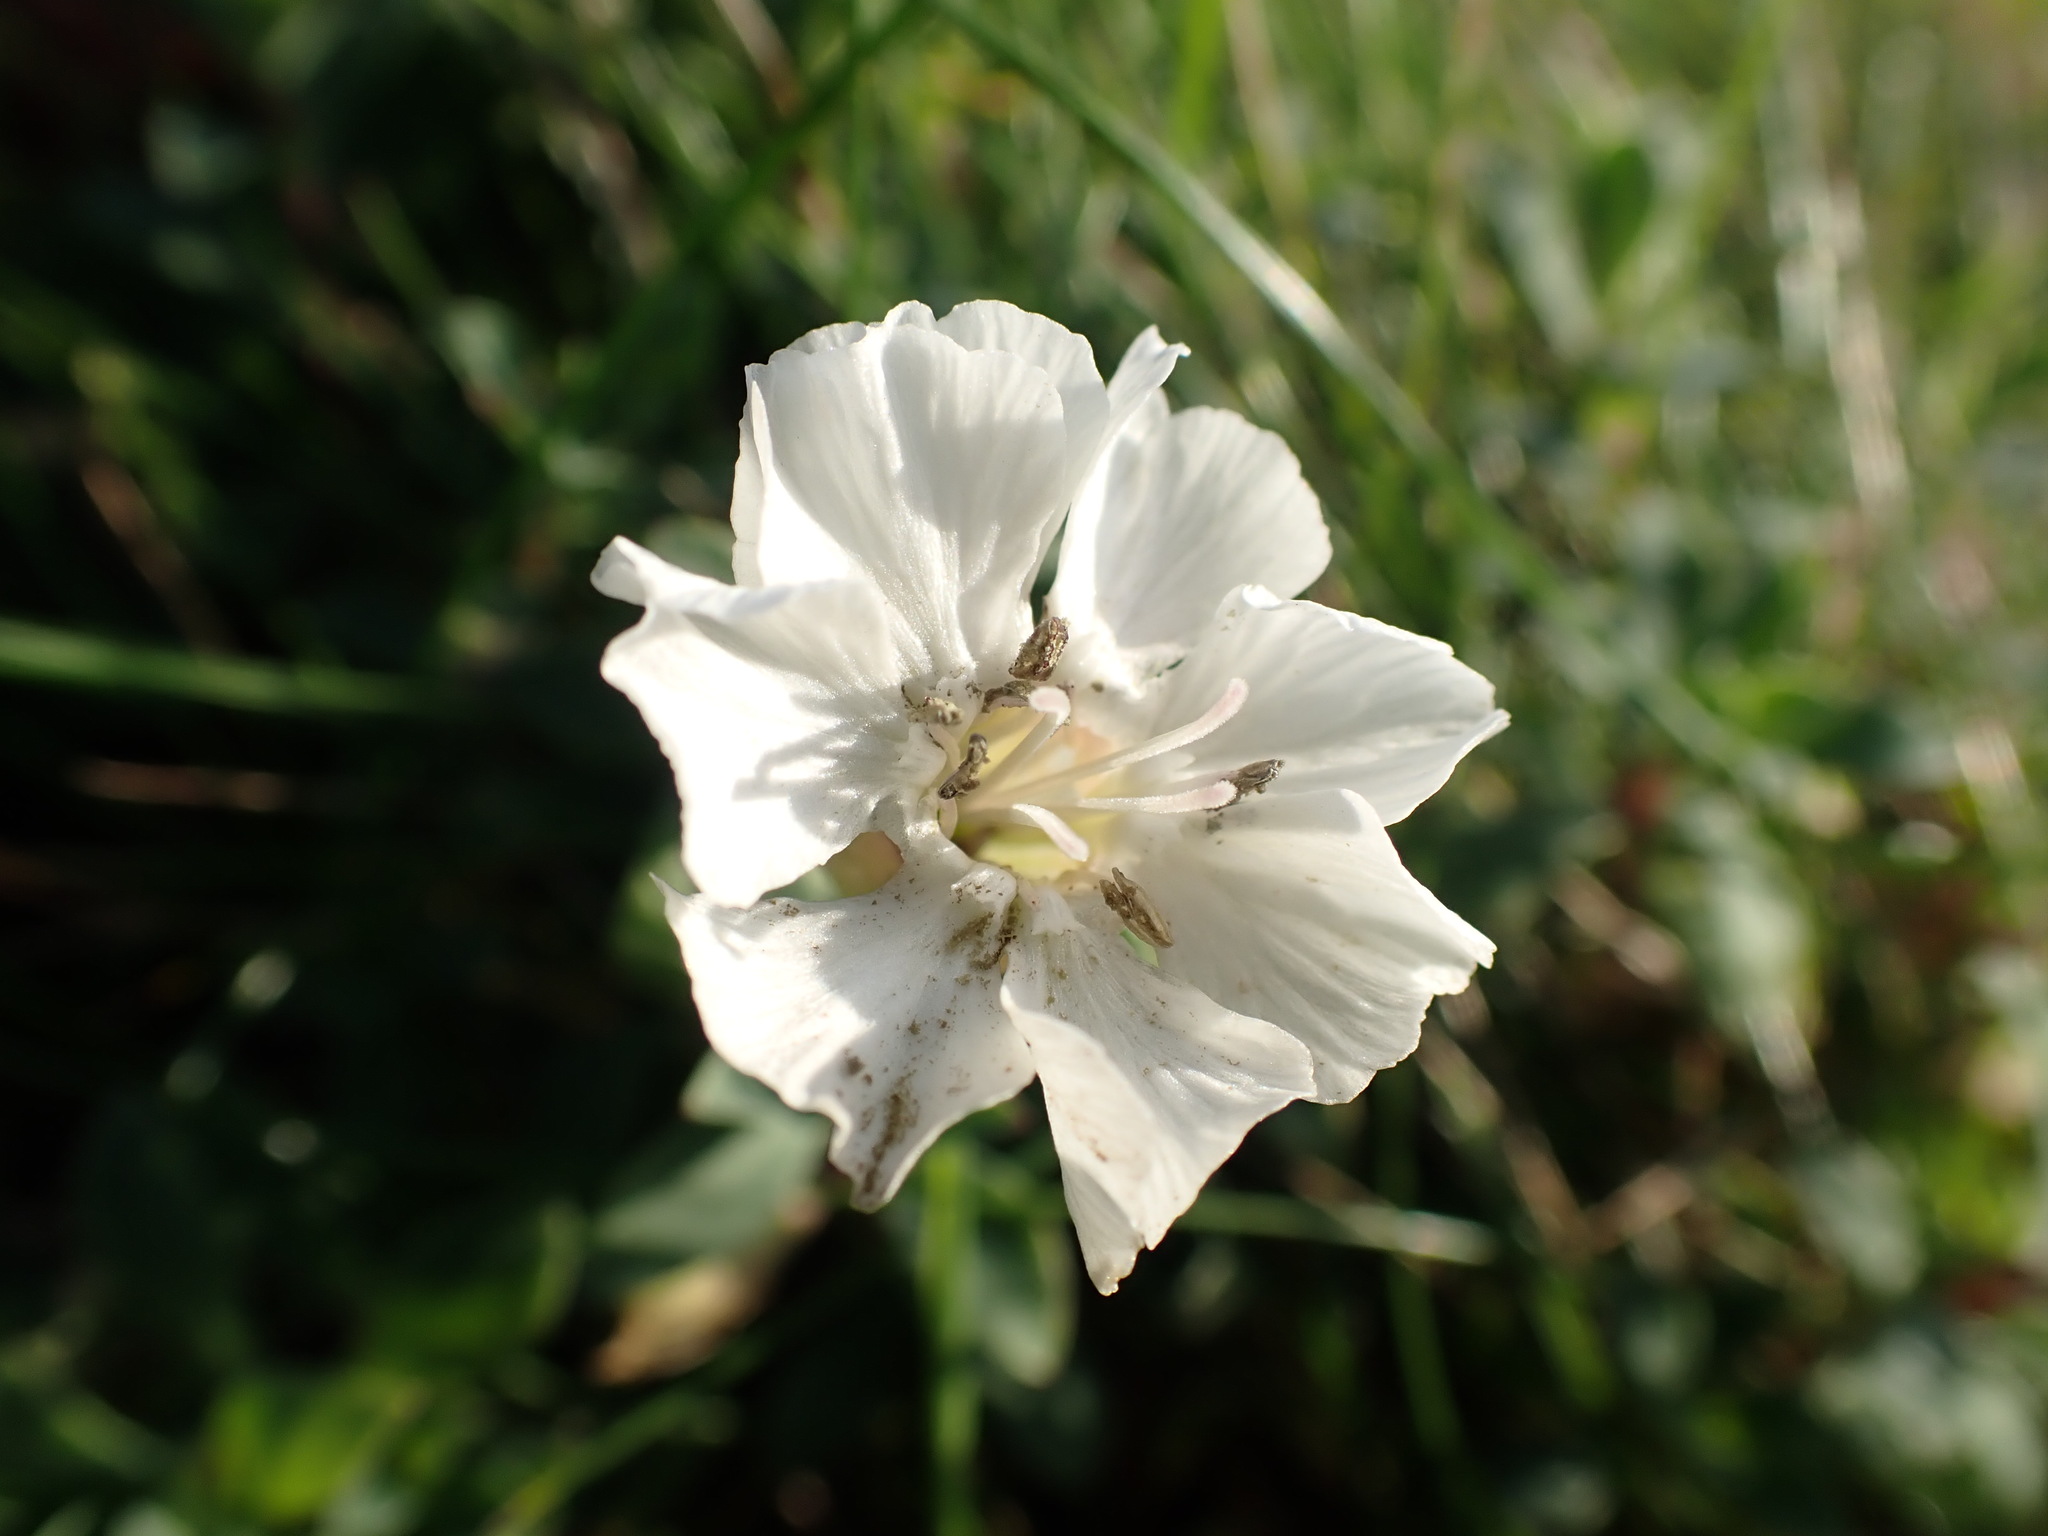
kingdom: Plantae
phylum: Tracheophyta
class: Magnoliopsida
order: Caryophyllales
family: Caryophyllaceae
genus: Silene
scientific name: Silene uniflora
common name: Sea campion
